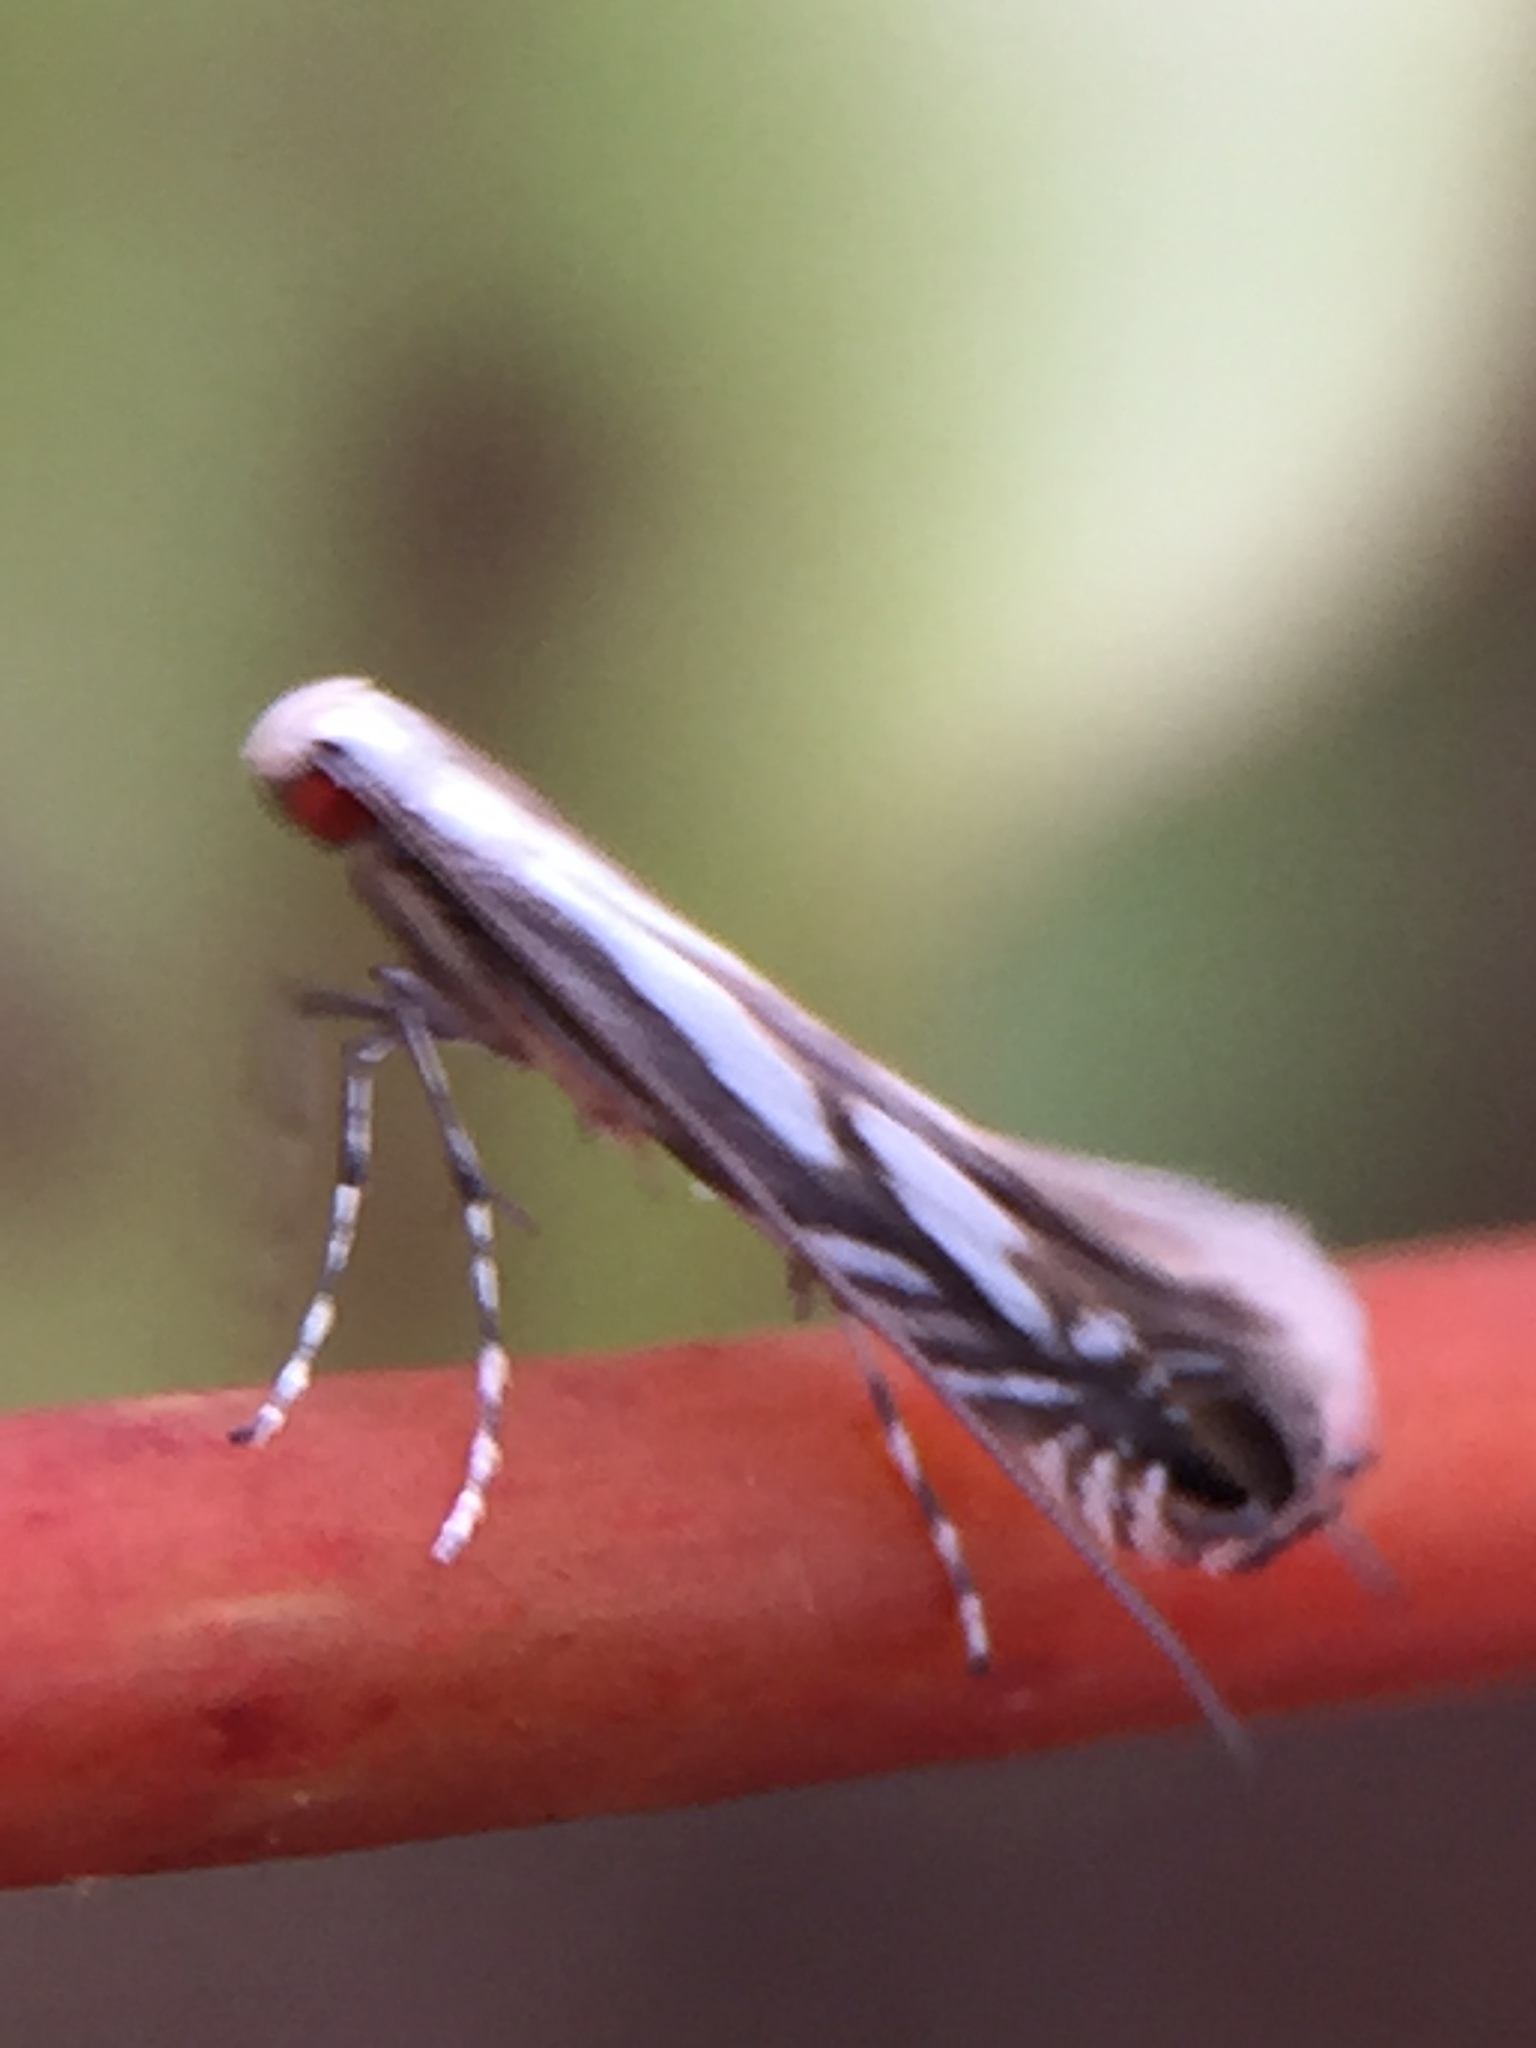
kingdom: Animalia
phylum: Arthropoda
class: Insecta
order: Lepidoptera
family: Gracillariidae
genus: Acrocercops
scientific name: Acrocercops leucotoma
